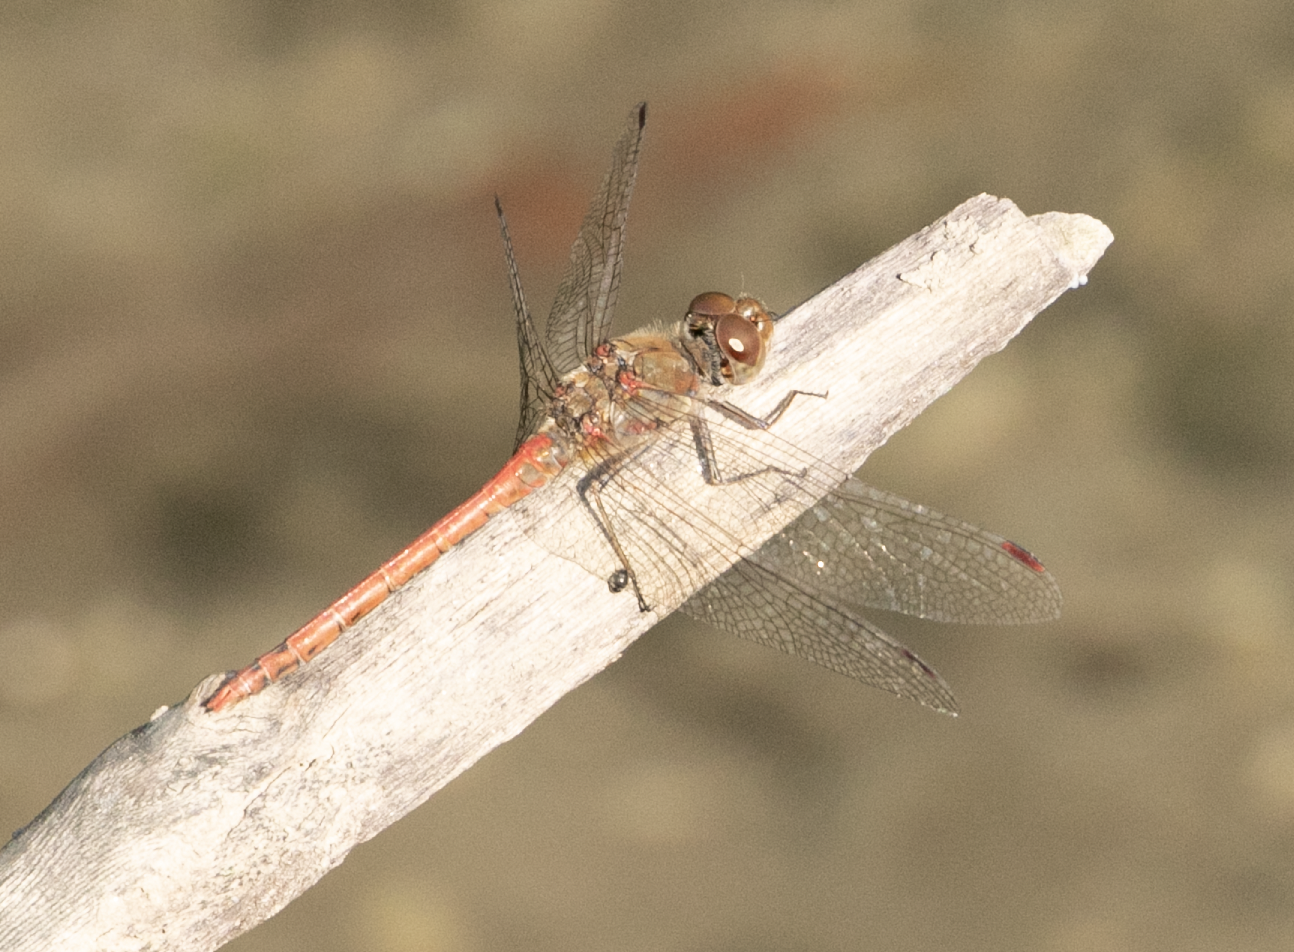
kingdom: Animalia
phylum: Arthropoda
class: Insecta
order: Odonata
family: Libellulidae
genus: Sympetrum
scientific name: Sympetrum striolatum
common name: Common darter
